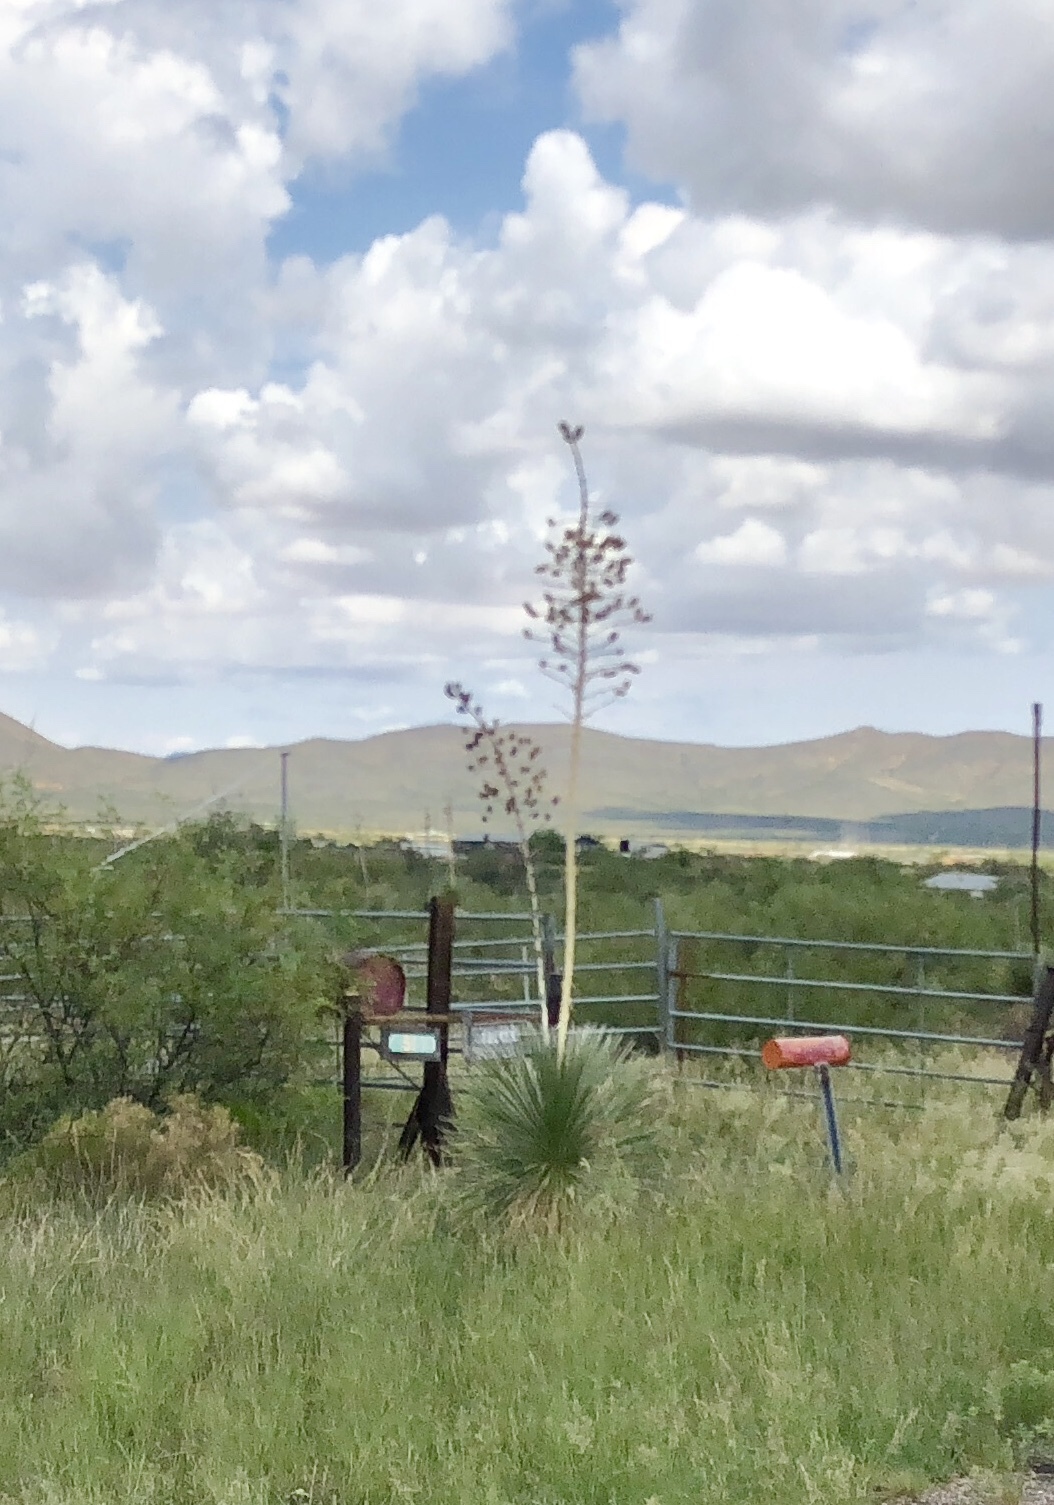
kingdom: Plantae
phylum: Tracheophyta
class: Liliopsida
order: Asparagales
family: Asparagaceae
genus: Yucca
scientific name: Yucca elata
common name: Palmella
